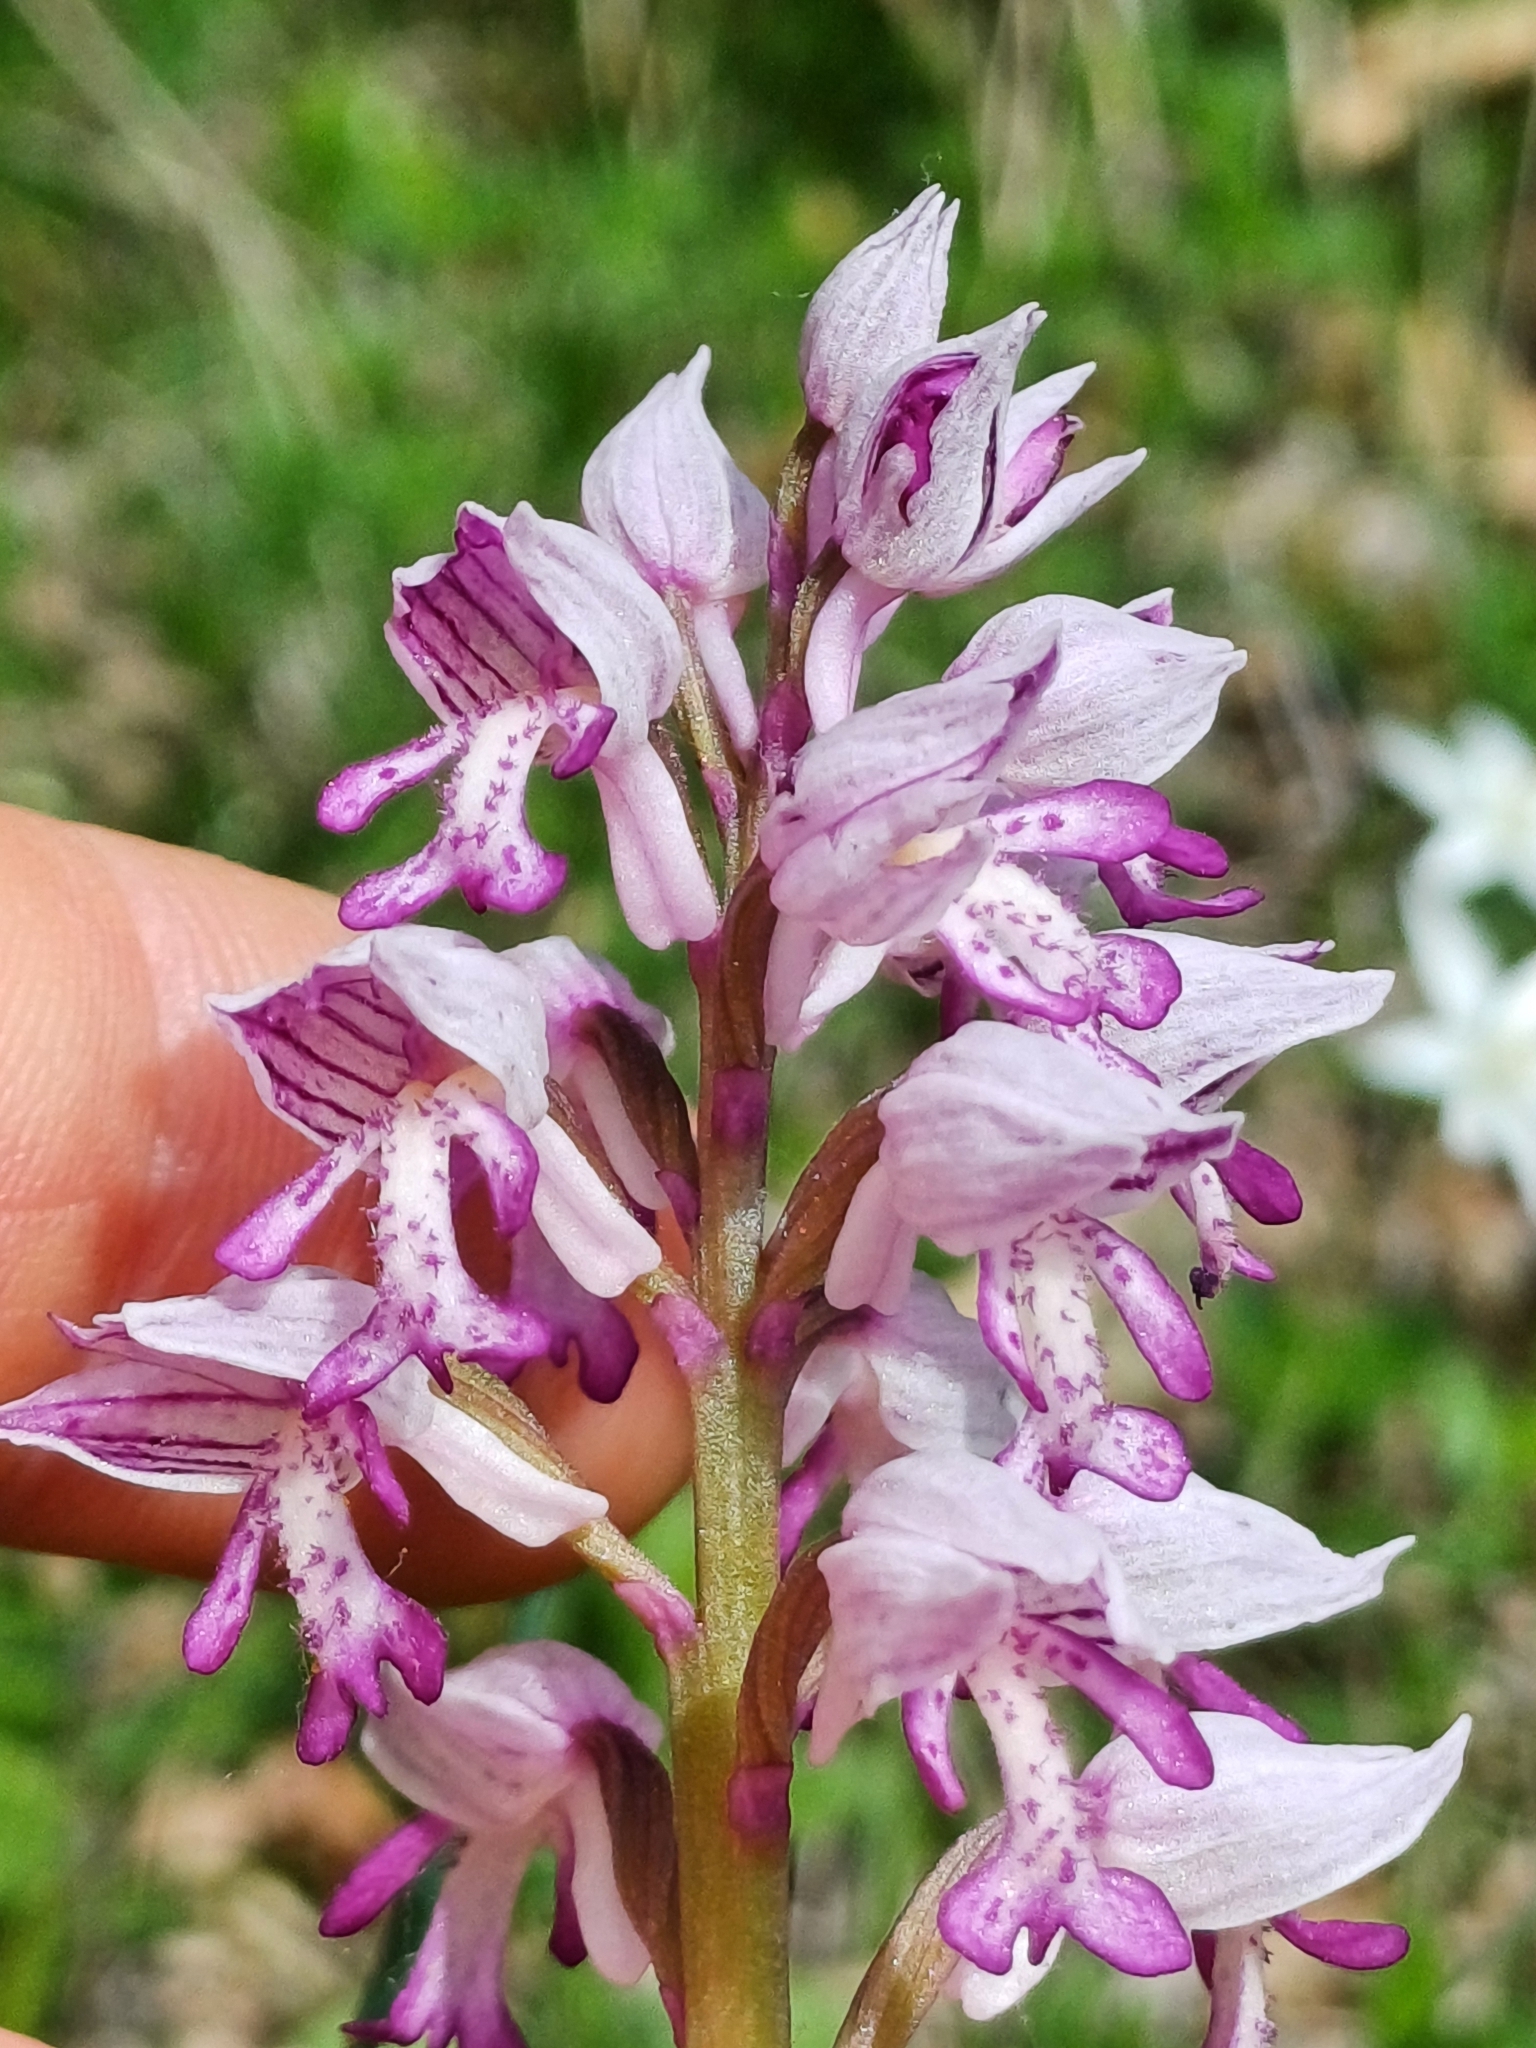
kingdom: Plantae
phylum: Tracheophyta
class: Liliopsida
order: Asparagales
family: Orchidaceae
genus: Orchis
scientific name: Orchis militaris
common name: Military orchid
